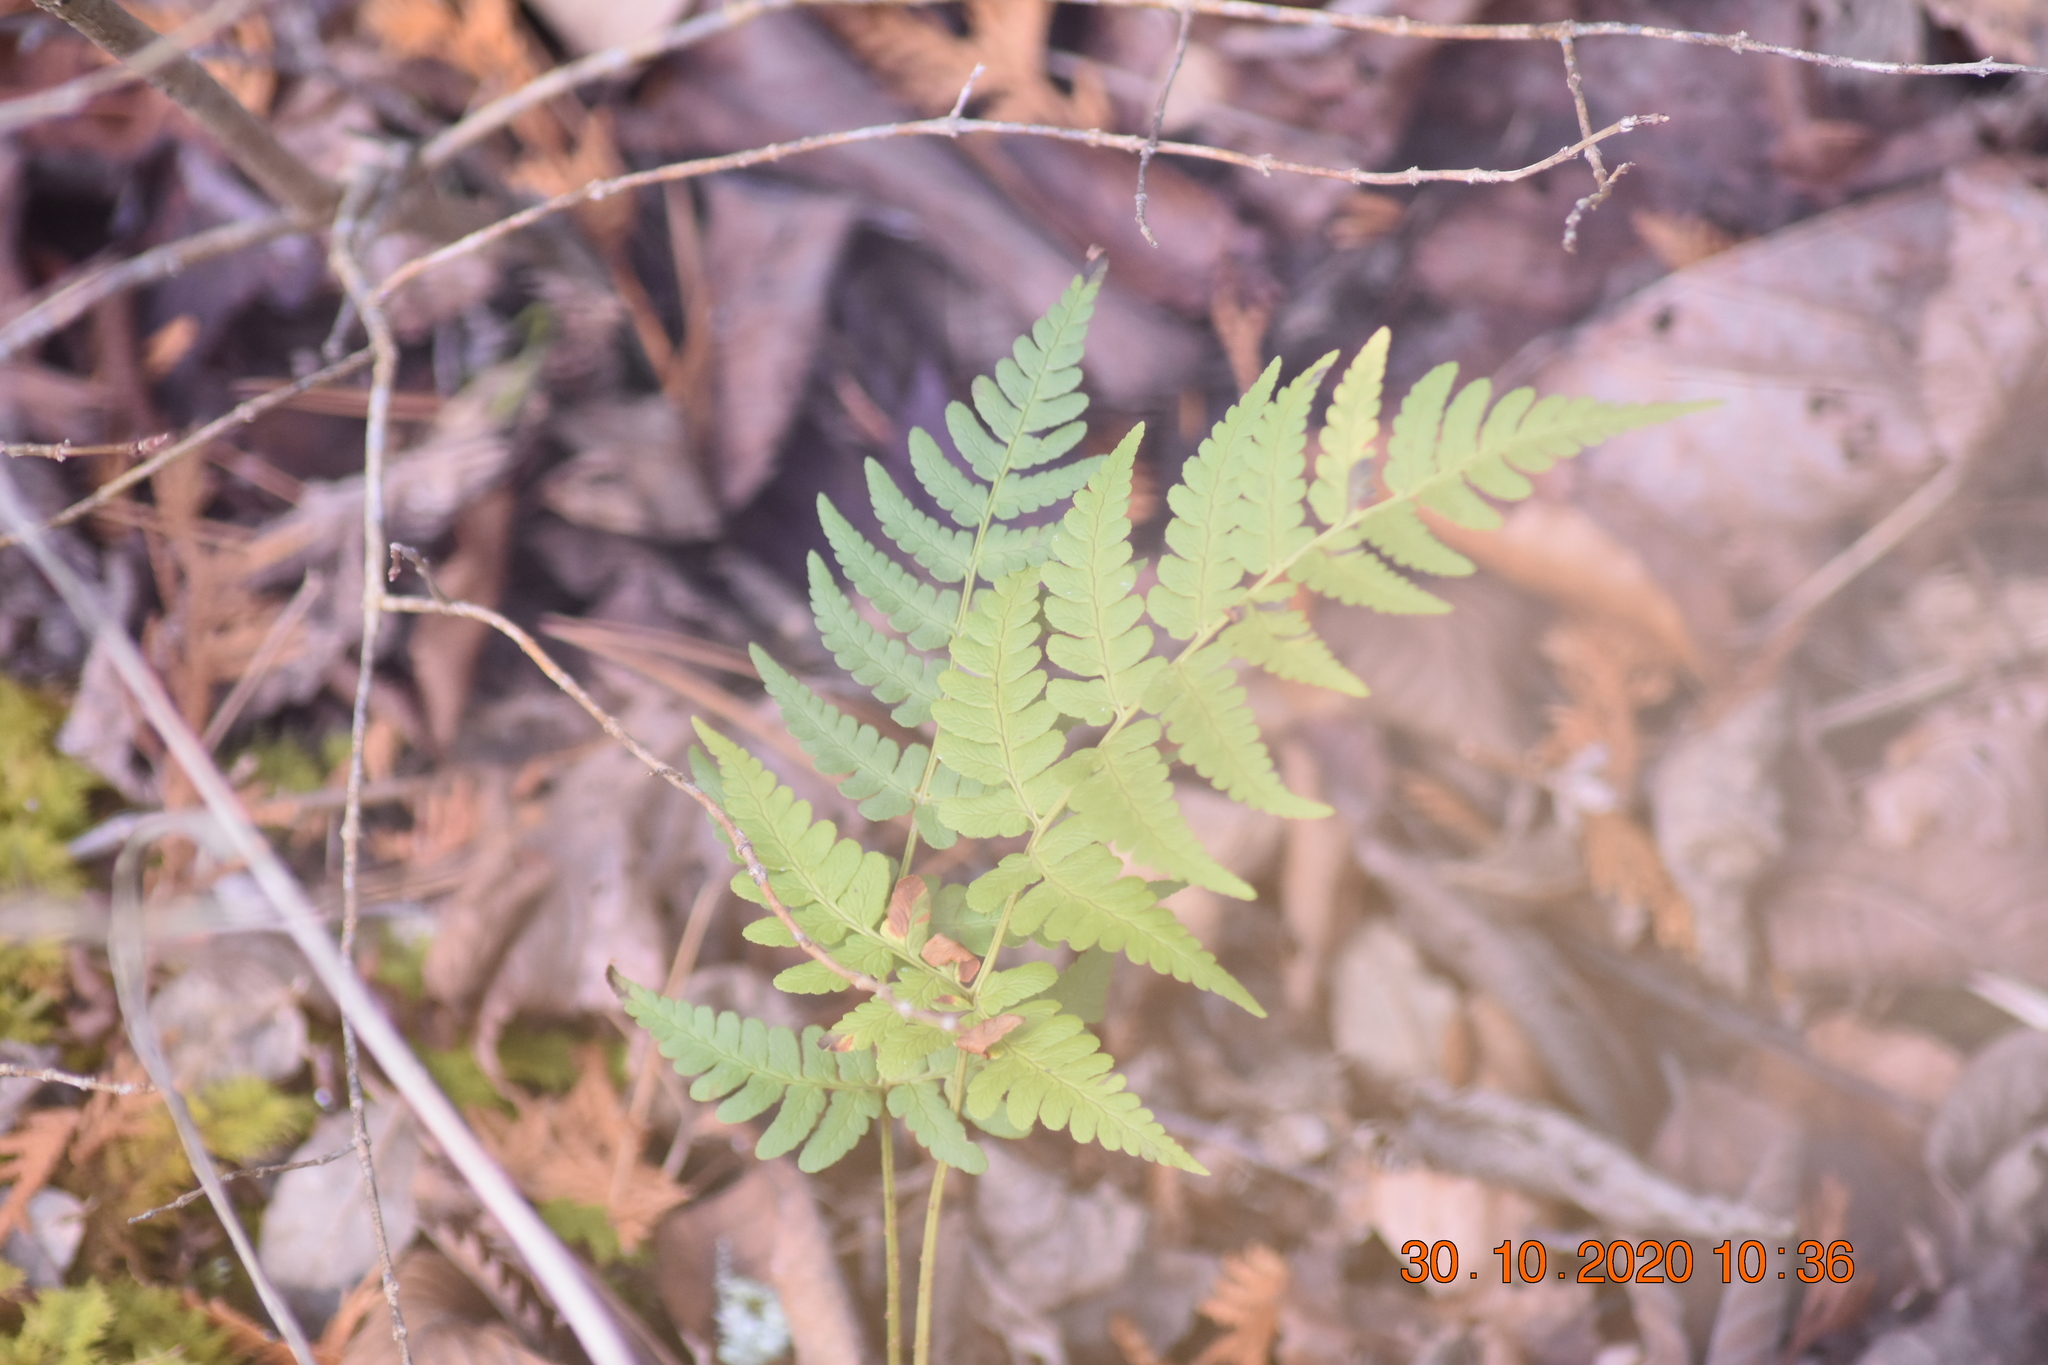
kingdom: Plantae
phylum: Tracheophyta
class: Polypodiopsida
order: Polypodiales
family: Dryopteridaceae
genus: Dryopteris
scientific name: Dryopteris marginalis
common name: Marginal wood fern
